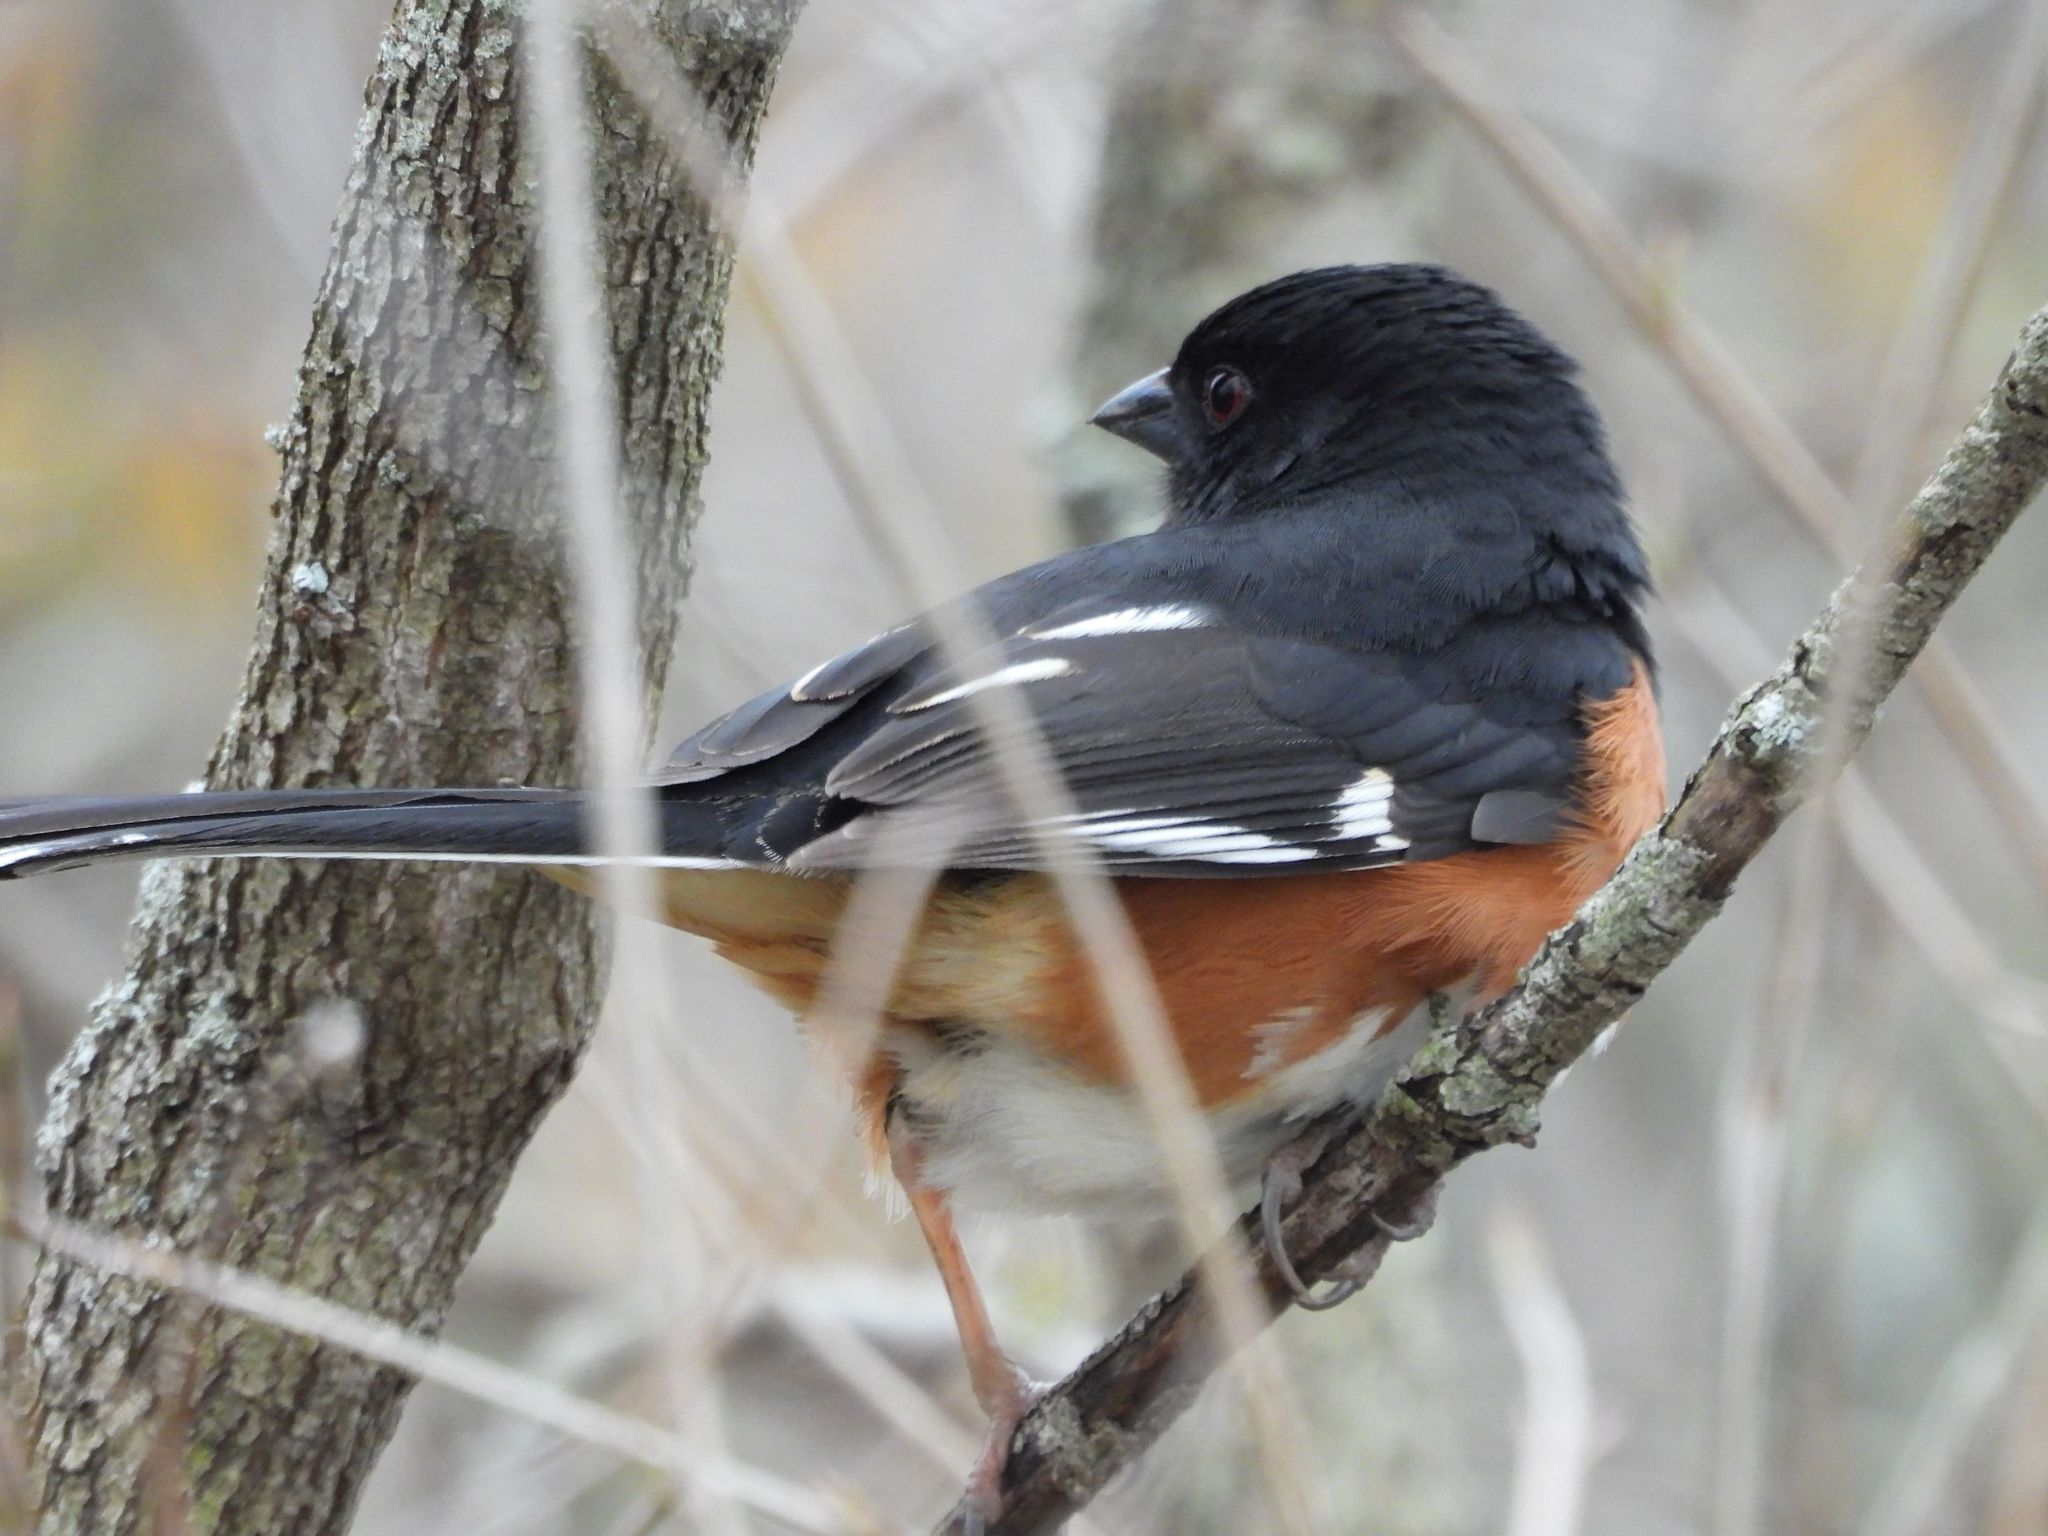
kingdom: Animalia
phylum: Chordata
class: Aves
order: Passeriformes
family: Passerellidae
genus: Pipilo
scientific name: Pipilo erythrophthalmus
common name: Eastern towhee
